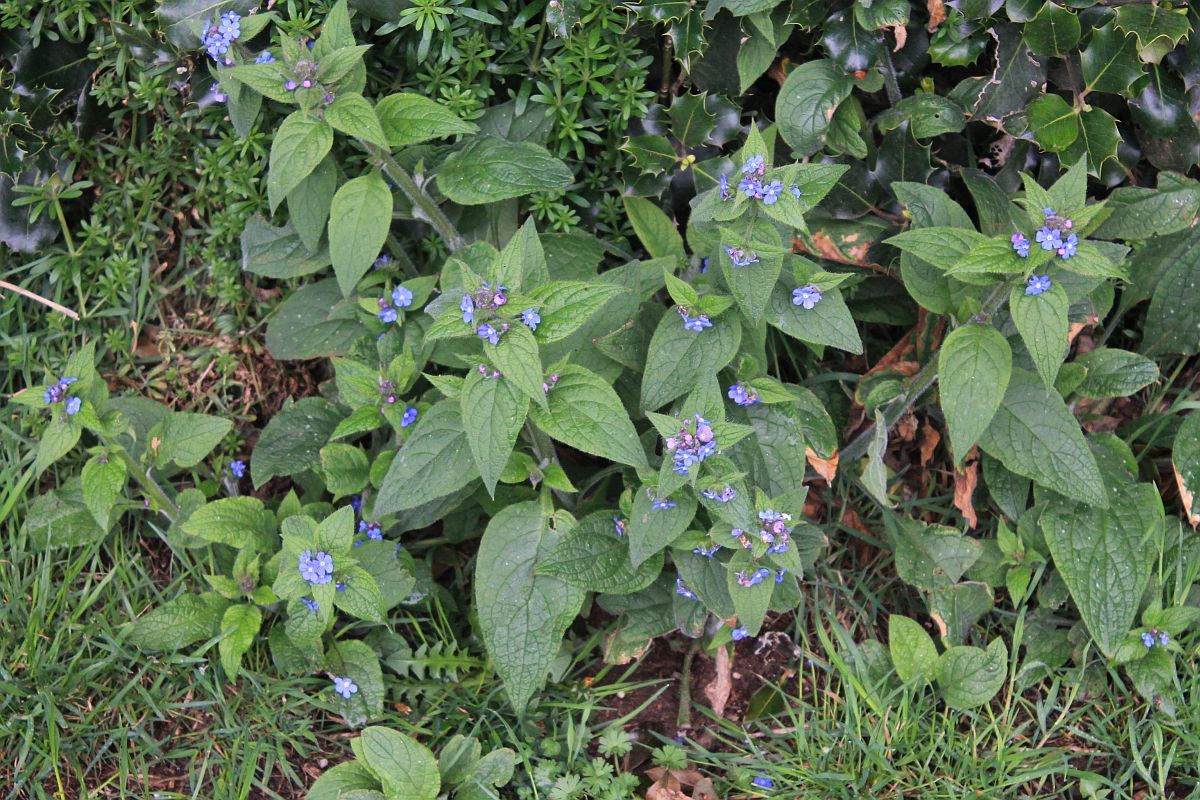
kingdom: Plantae
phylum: Tracheophyta
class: Magnoliopsida
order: Boraginales
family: Boraginaceae
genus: Pentaglottis
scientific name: Pentaglottis sempervirens
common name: Green alkanet
